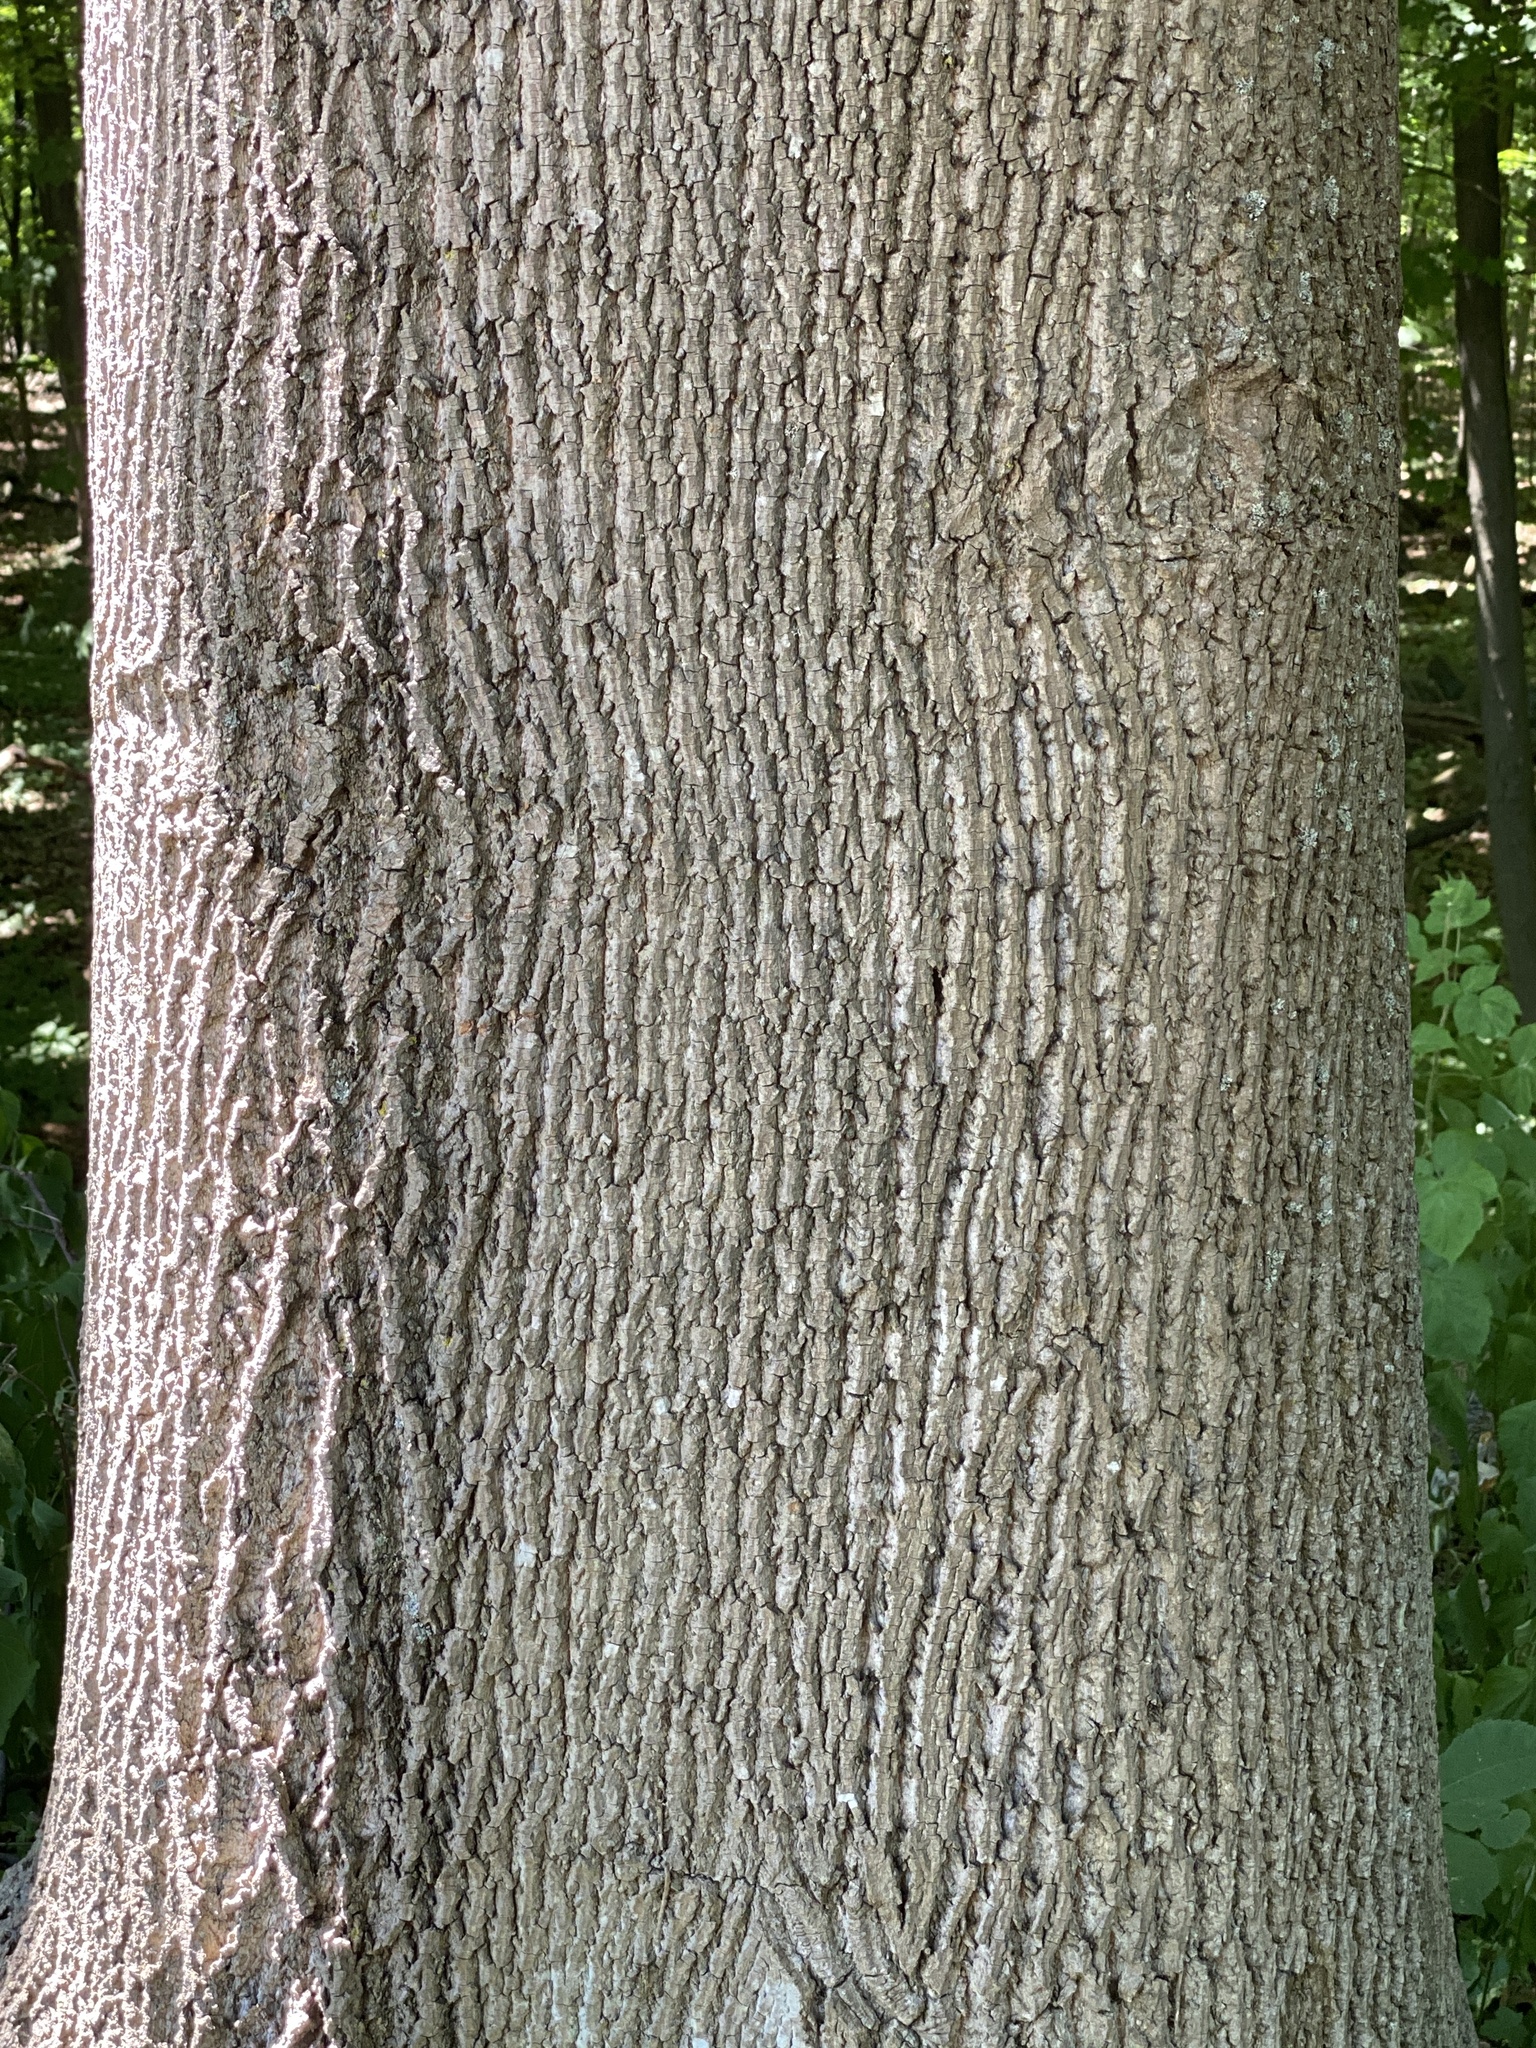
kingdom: Plantae
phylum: Tracheophyta
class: Magnoliopsida
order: Magnoliales
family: Magnoliaceae
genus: Liriodendron
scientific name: Liriodendron tulipifera
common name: Tulip tree
